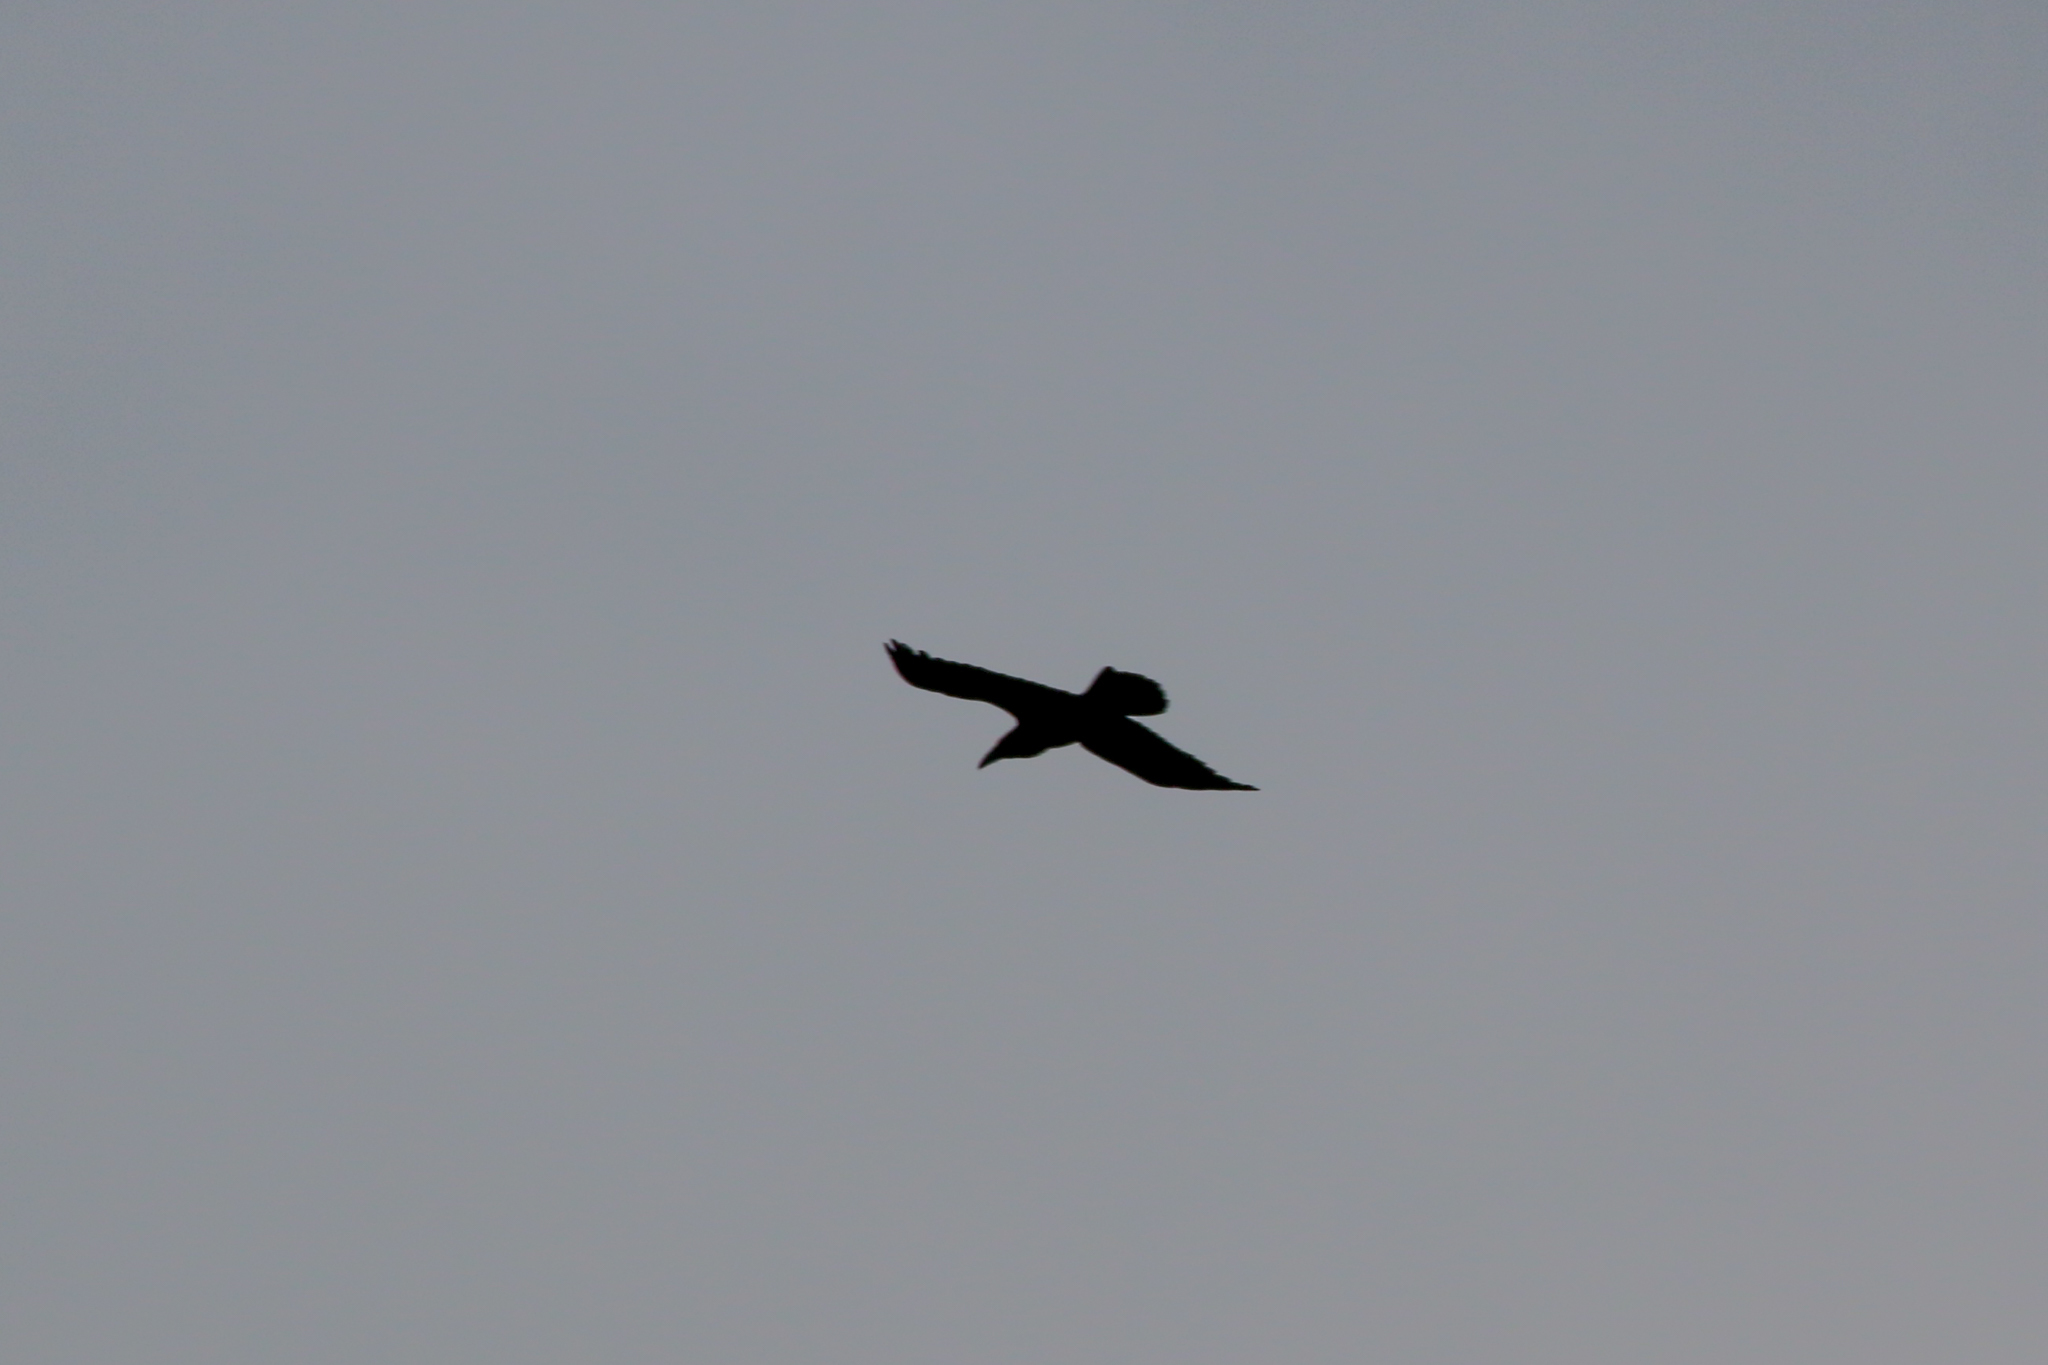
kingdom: Animalia
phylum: Chordata
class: Aves
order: Passeriformes
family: Corvidae
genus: Corvus
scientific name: Corvus corax
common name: Common raven
